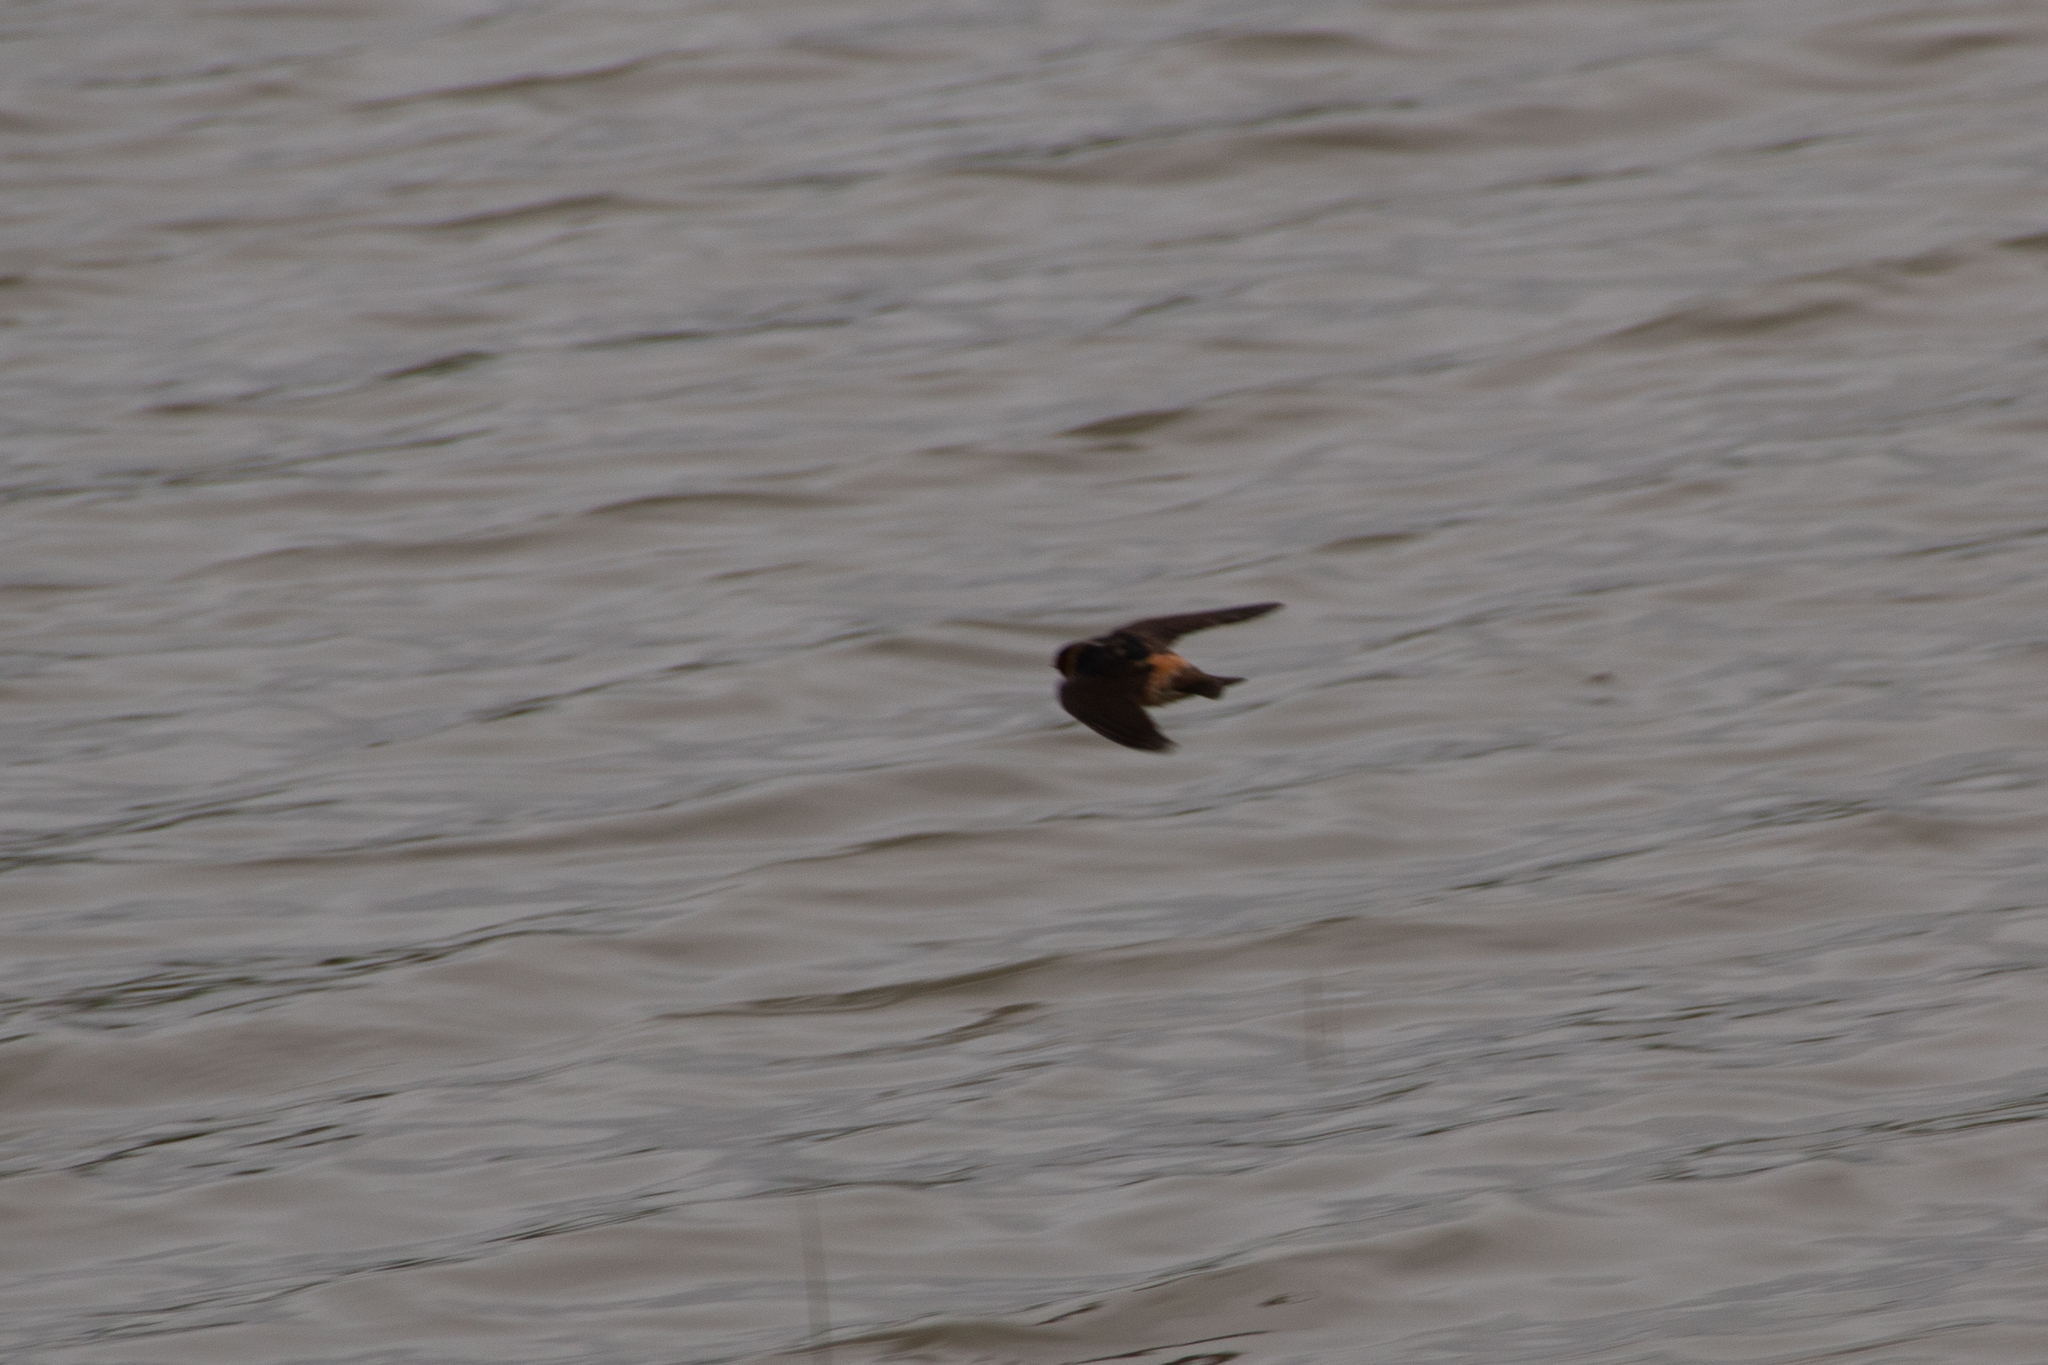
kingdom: Animalia
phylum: Chordata
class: Aves
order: Passeriformes
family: Hirundinidae
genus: Petrochelidon
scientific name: Petrochelidon pyrrhonota
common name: American cliff swallow
